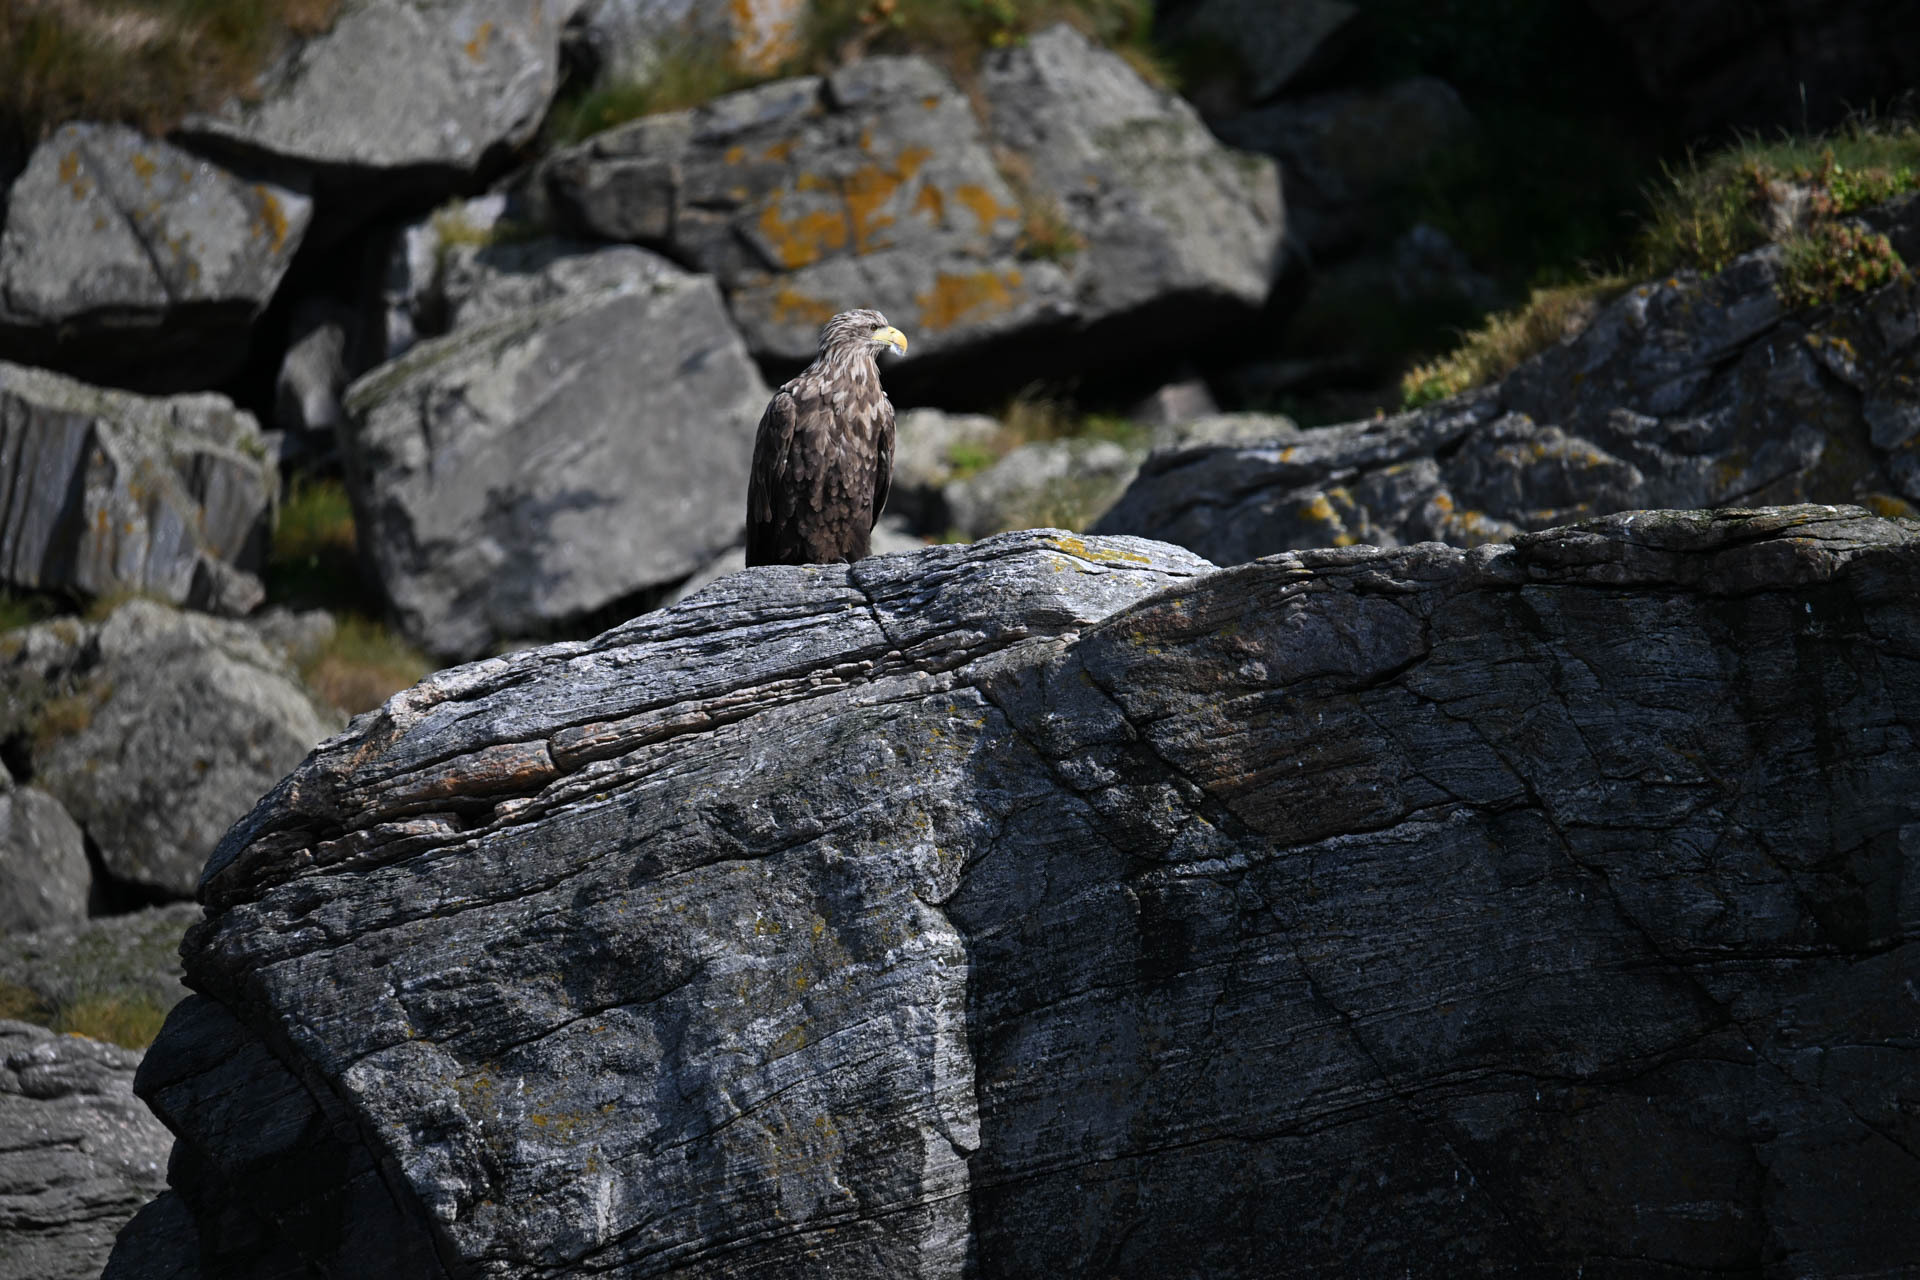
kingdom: Animalia
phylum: Chordata
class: Aves
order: Accipitriformes
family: Accipitridae
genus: Haliaeetus
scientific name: Haliaeetus albicilla
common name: White-tailed eagle
